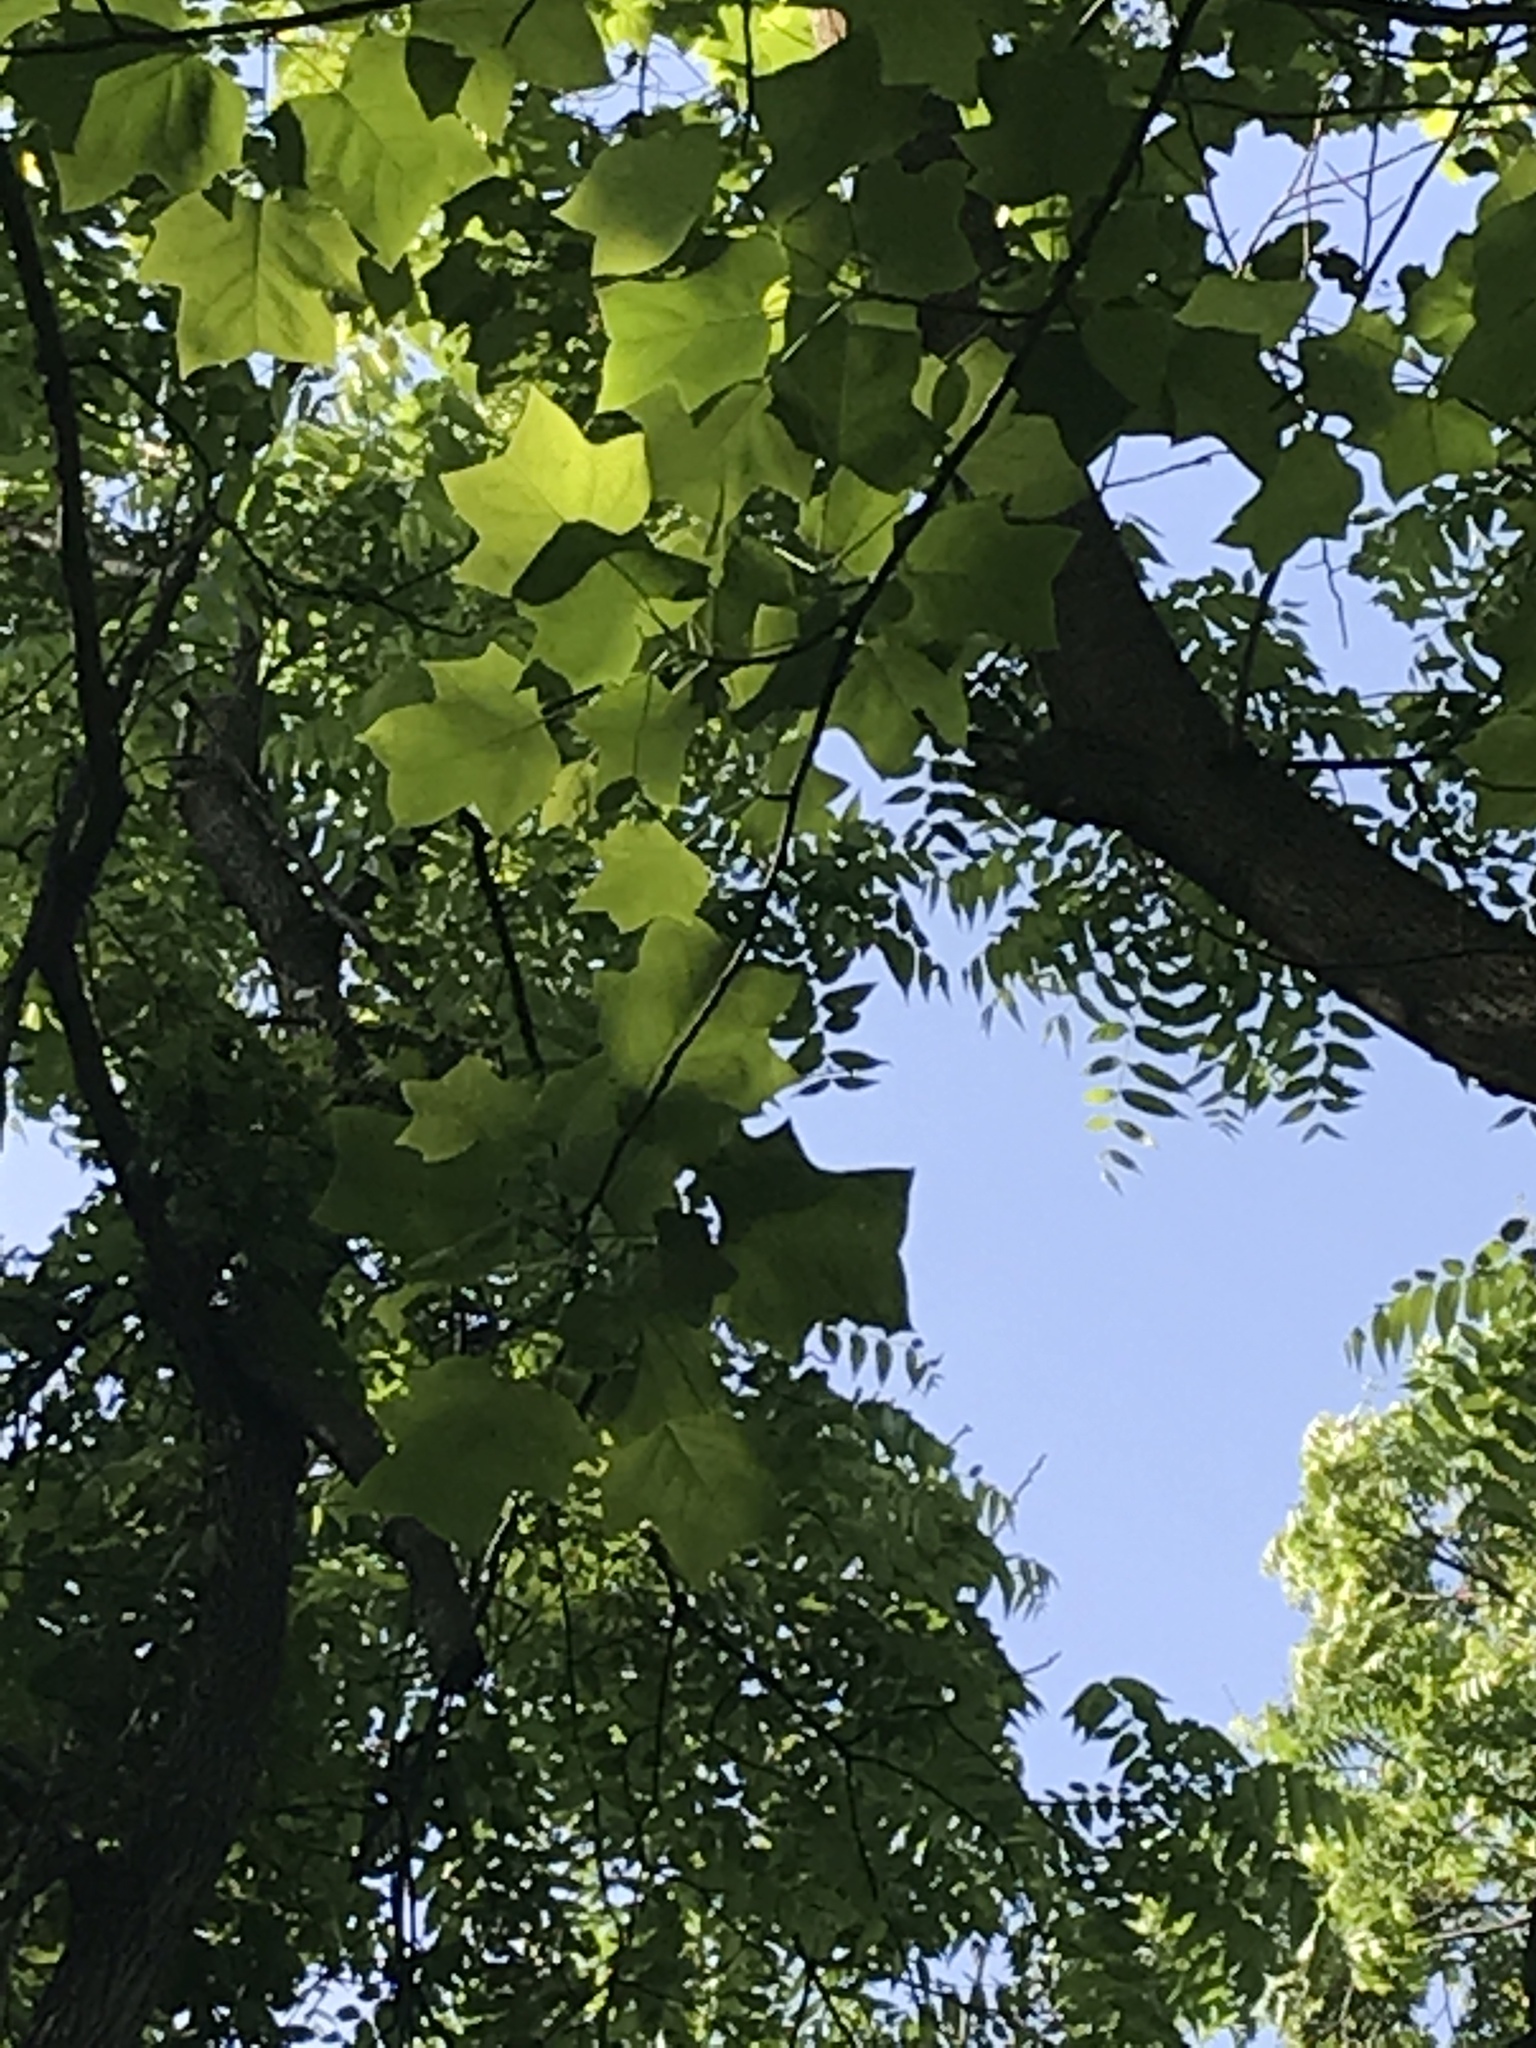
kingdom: Plantae
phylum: Tracheophyta
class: Magnoliopsida
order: Magnoliales
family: Magnoliaceae
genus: Liriodendron
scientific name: Liriodendron tulipifera
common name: Tulip tree
